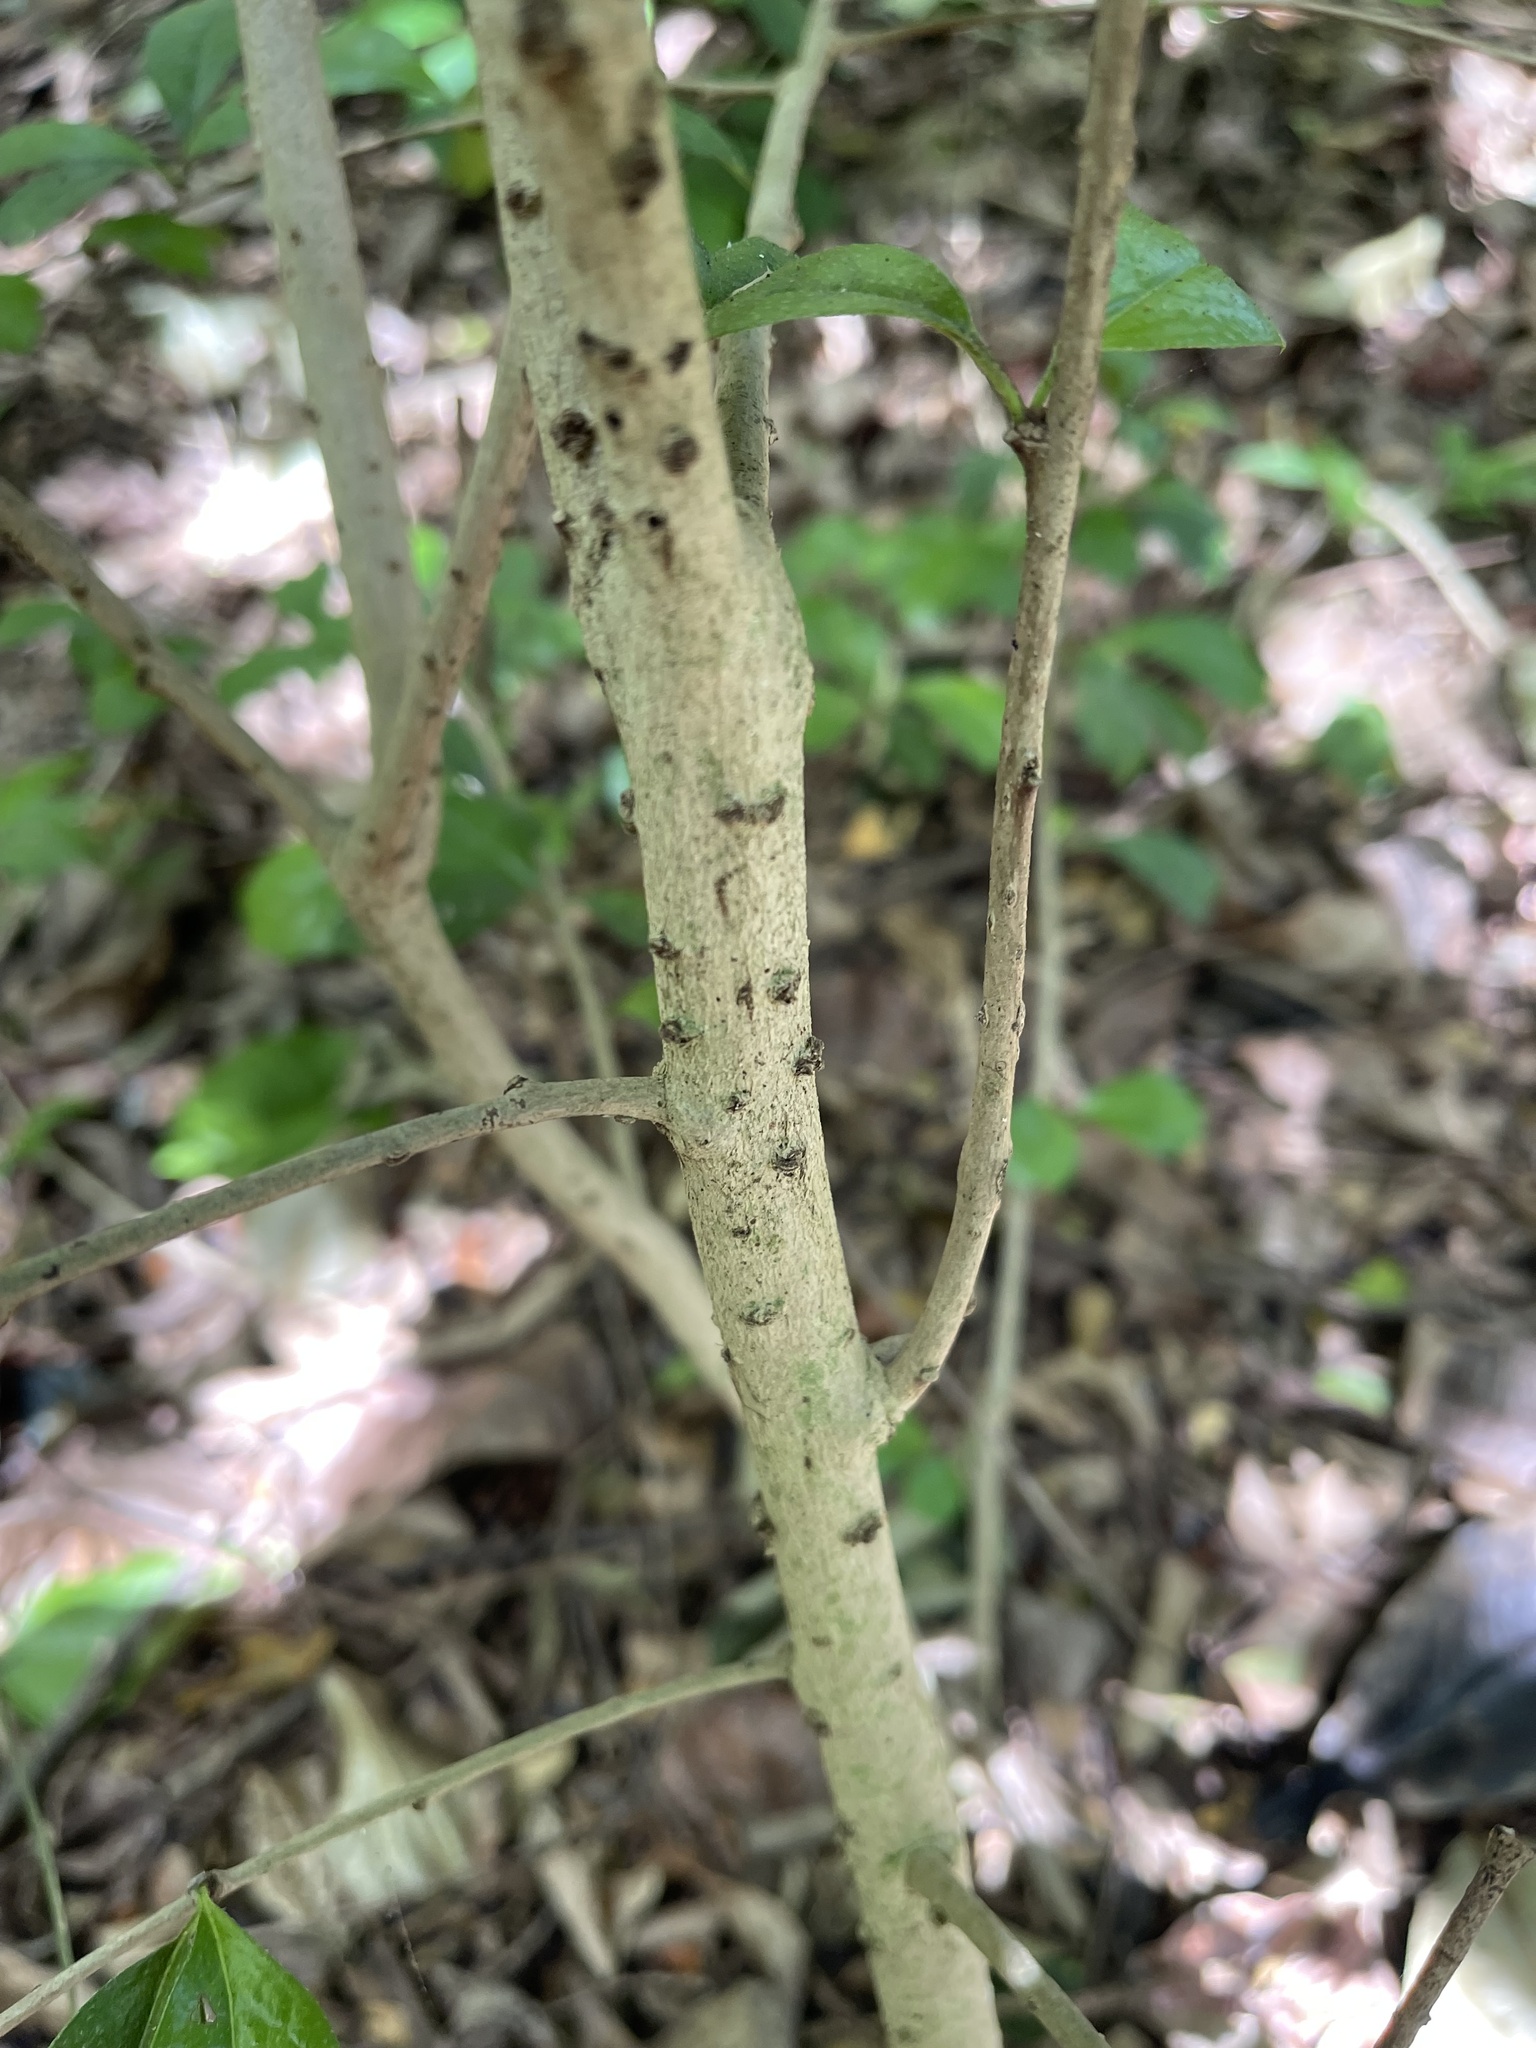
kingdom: Plantae
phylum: Tracheophyta
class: Magnoliopsida
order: Boraginales
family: Ehretiaceae
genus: Ehretia
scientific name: Ehretia microphylla
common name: Fukien-tea
